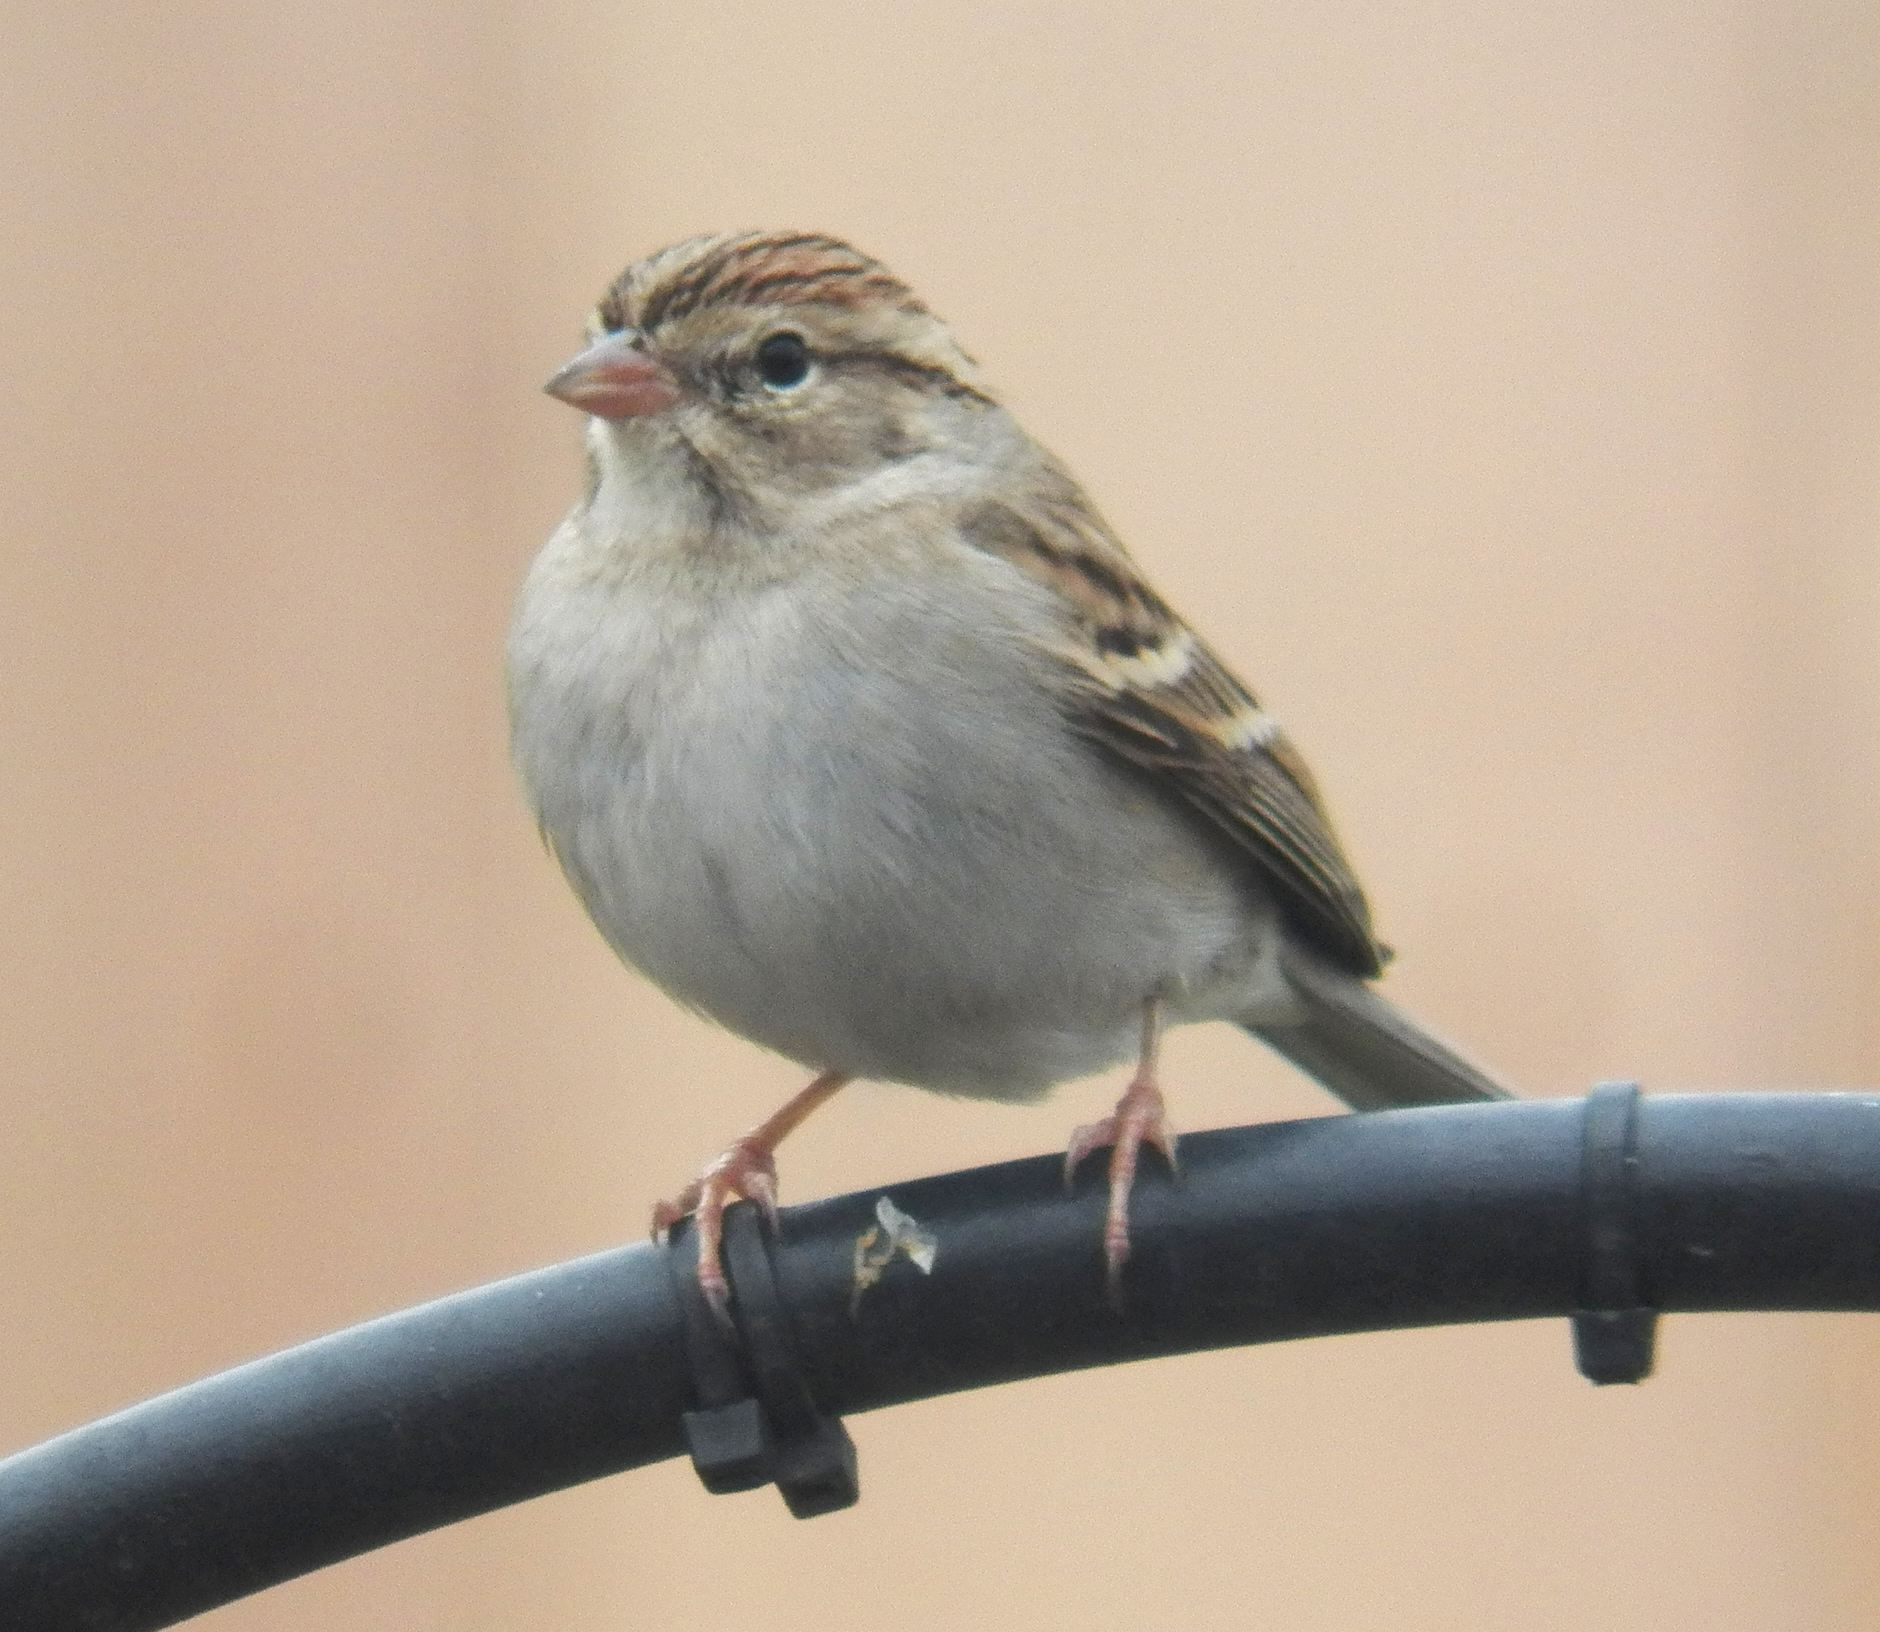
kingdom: Animalia
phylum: Chordata
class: Aves
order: Passeriformes
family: Passerellidae
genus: Spizella
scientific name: Spizella passerina
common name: Chipping sparrow
